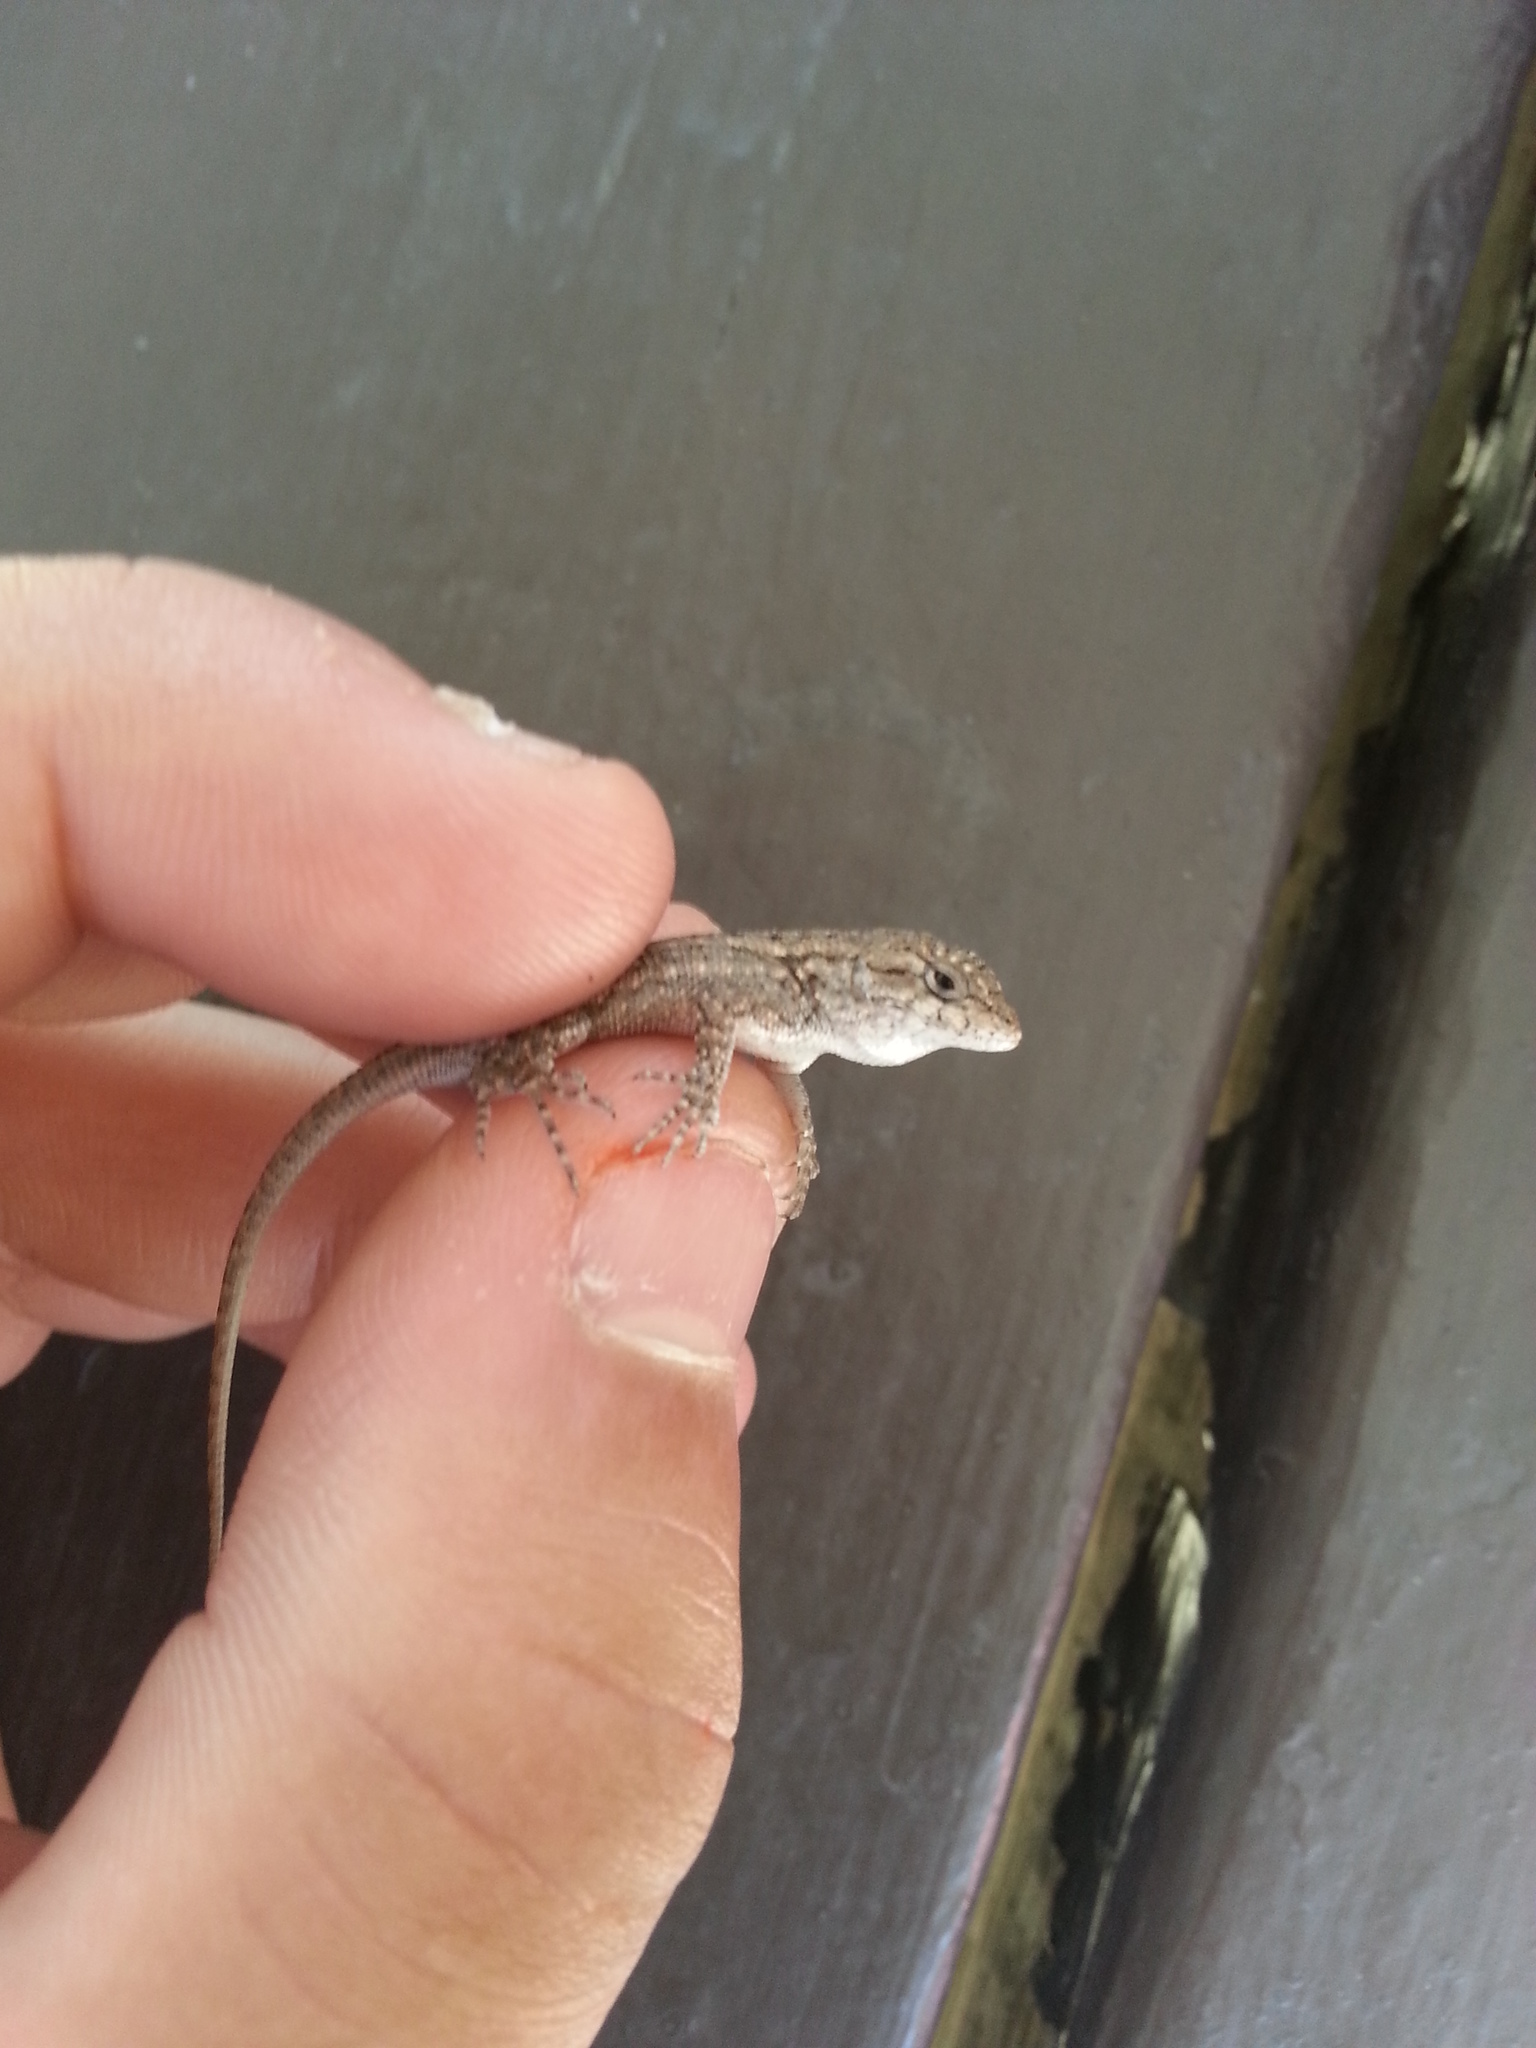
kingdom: Animalia
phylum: Chordata
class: Squamata
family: Phrynosomatidae
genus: Sceloporus
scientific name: Sceloporus occidentalis
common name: Western fence lizard
